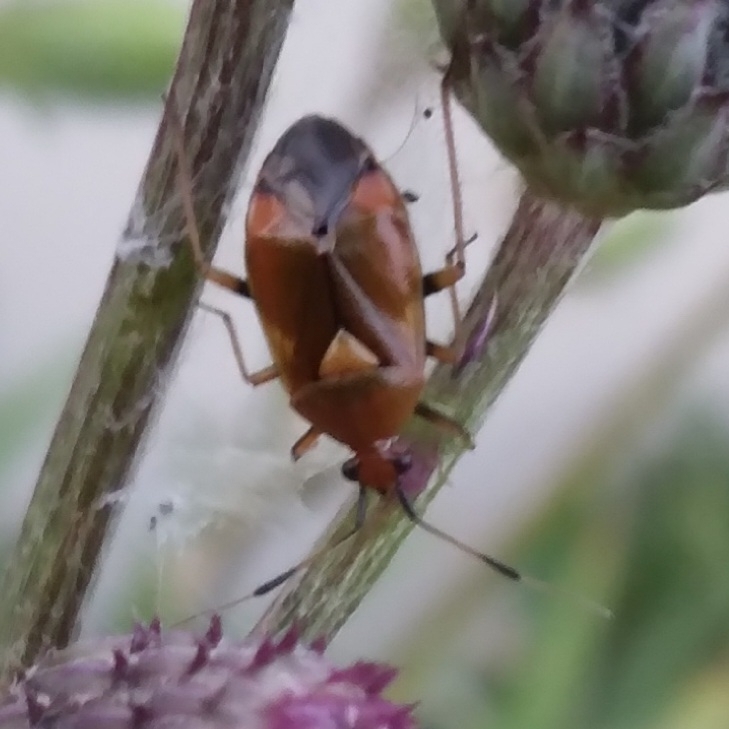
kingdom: Animalia
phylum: Arthropoda
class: Insecta
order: Hemiptera
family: Miridae
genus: Deraeocoris
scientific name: Deraeocoris ruber
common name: Plant bug
